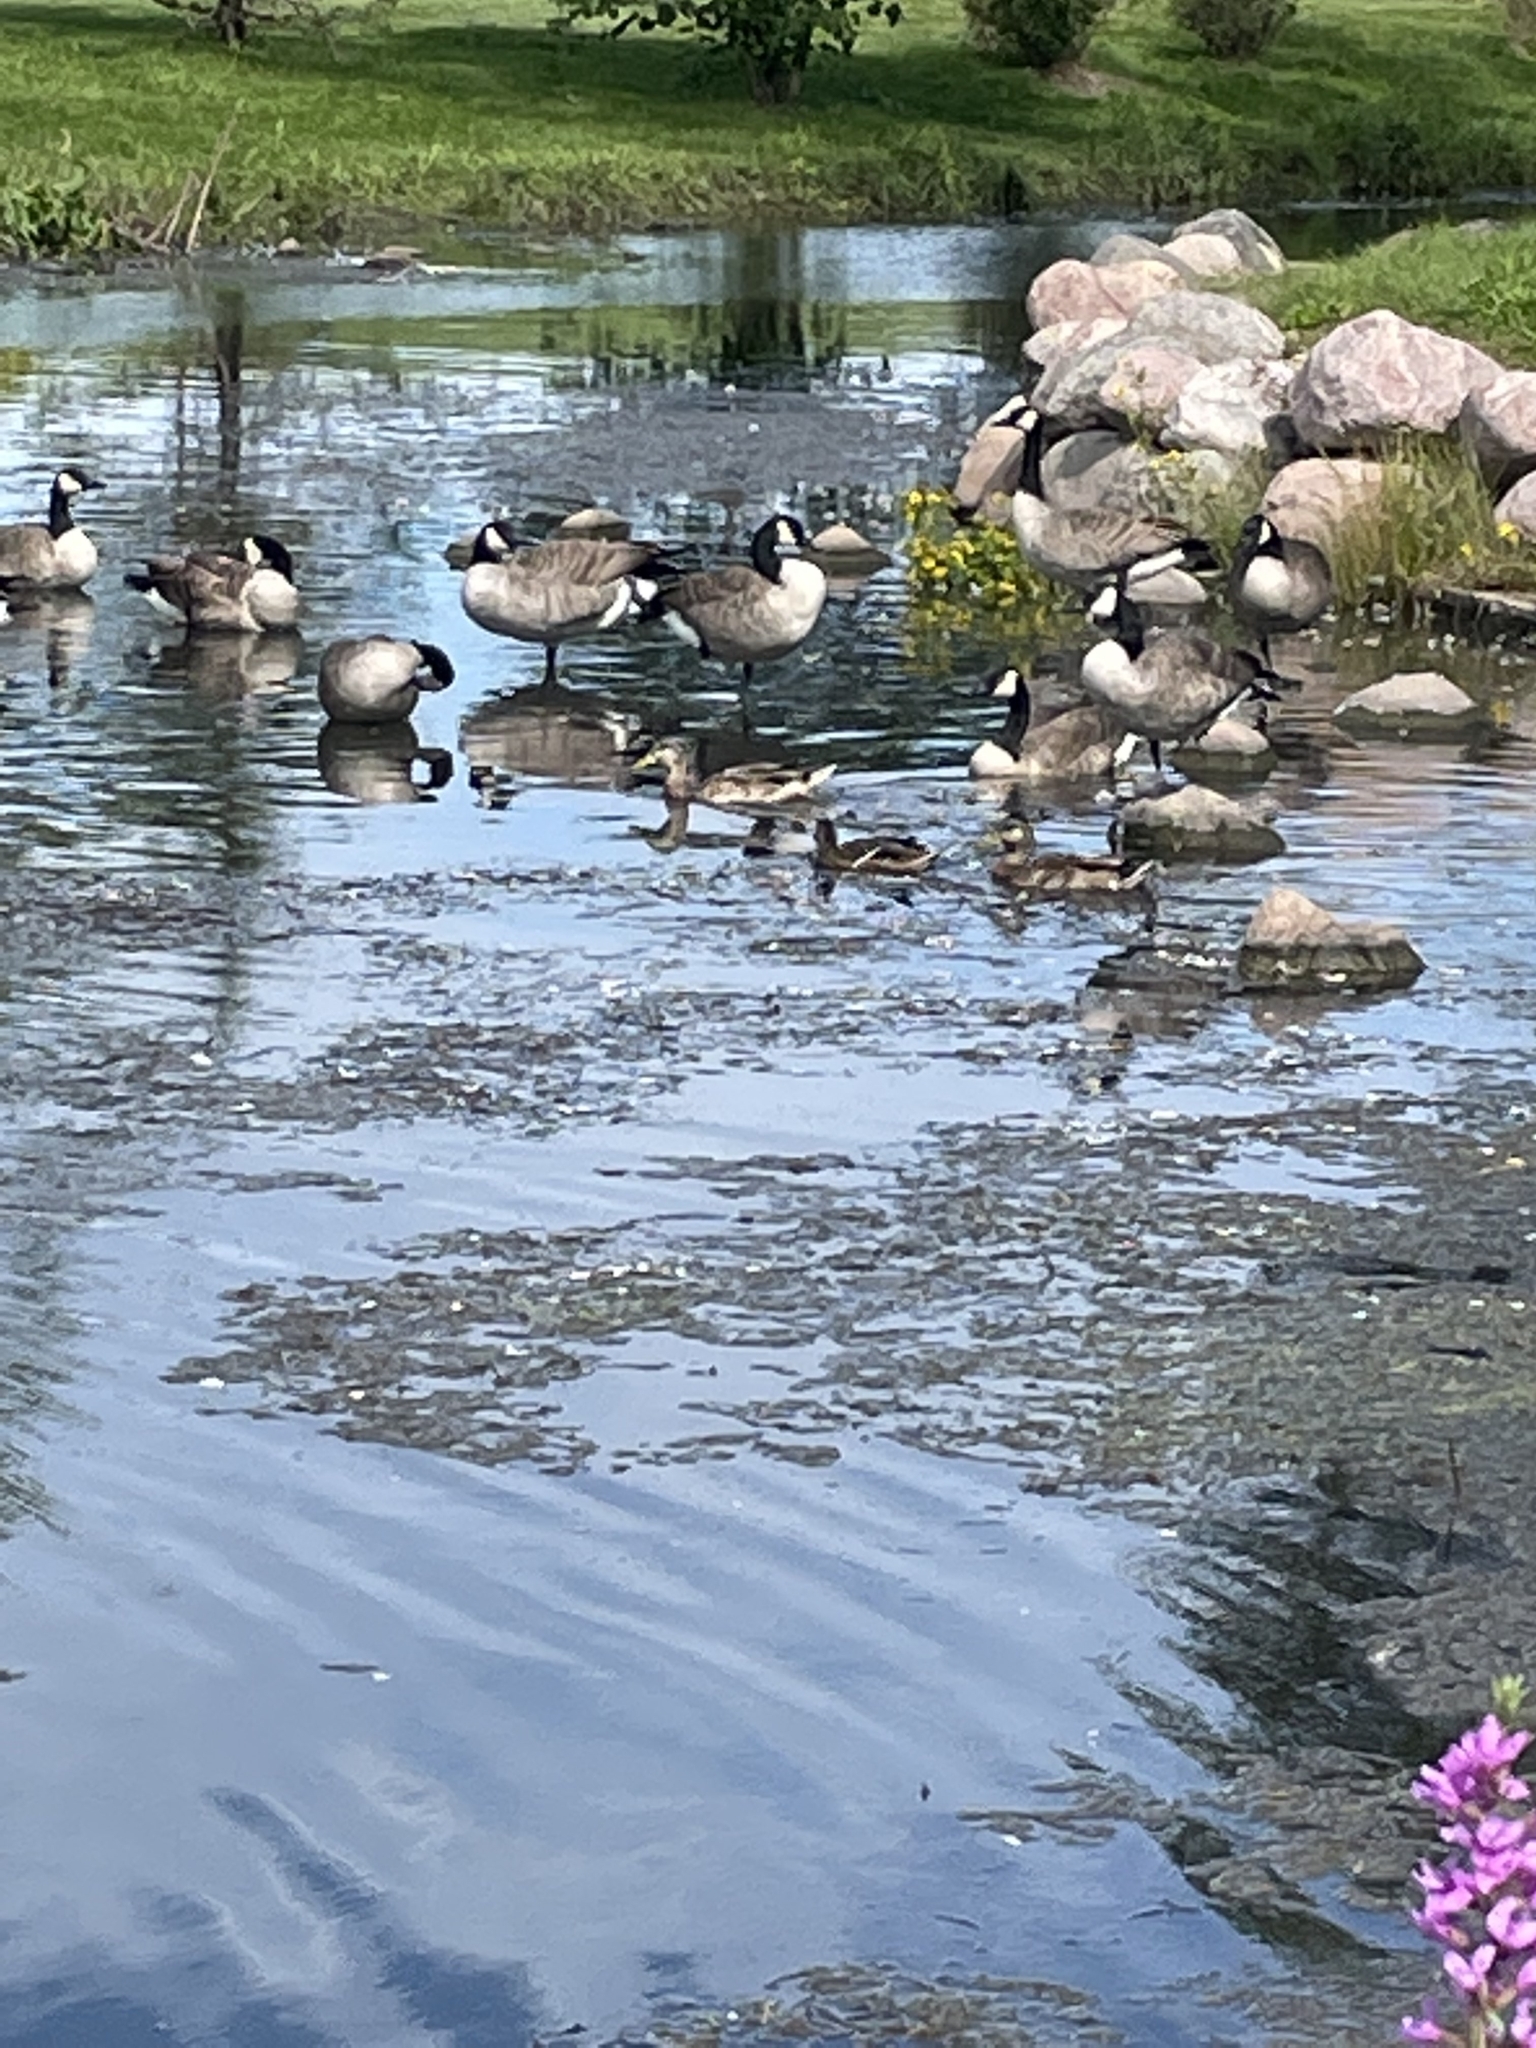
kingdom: Animalia
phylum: Chordata
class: Aves
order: Anseriformes
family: Anatidae
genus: Anas
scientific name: Anas platyrhynchos
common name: Mallard
